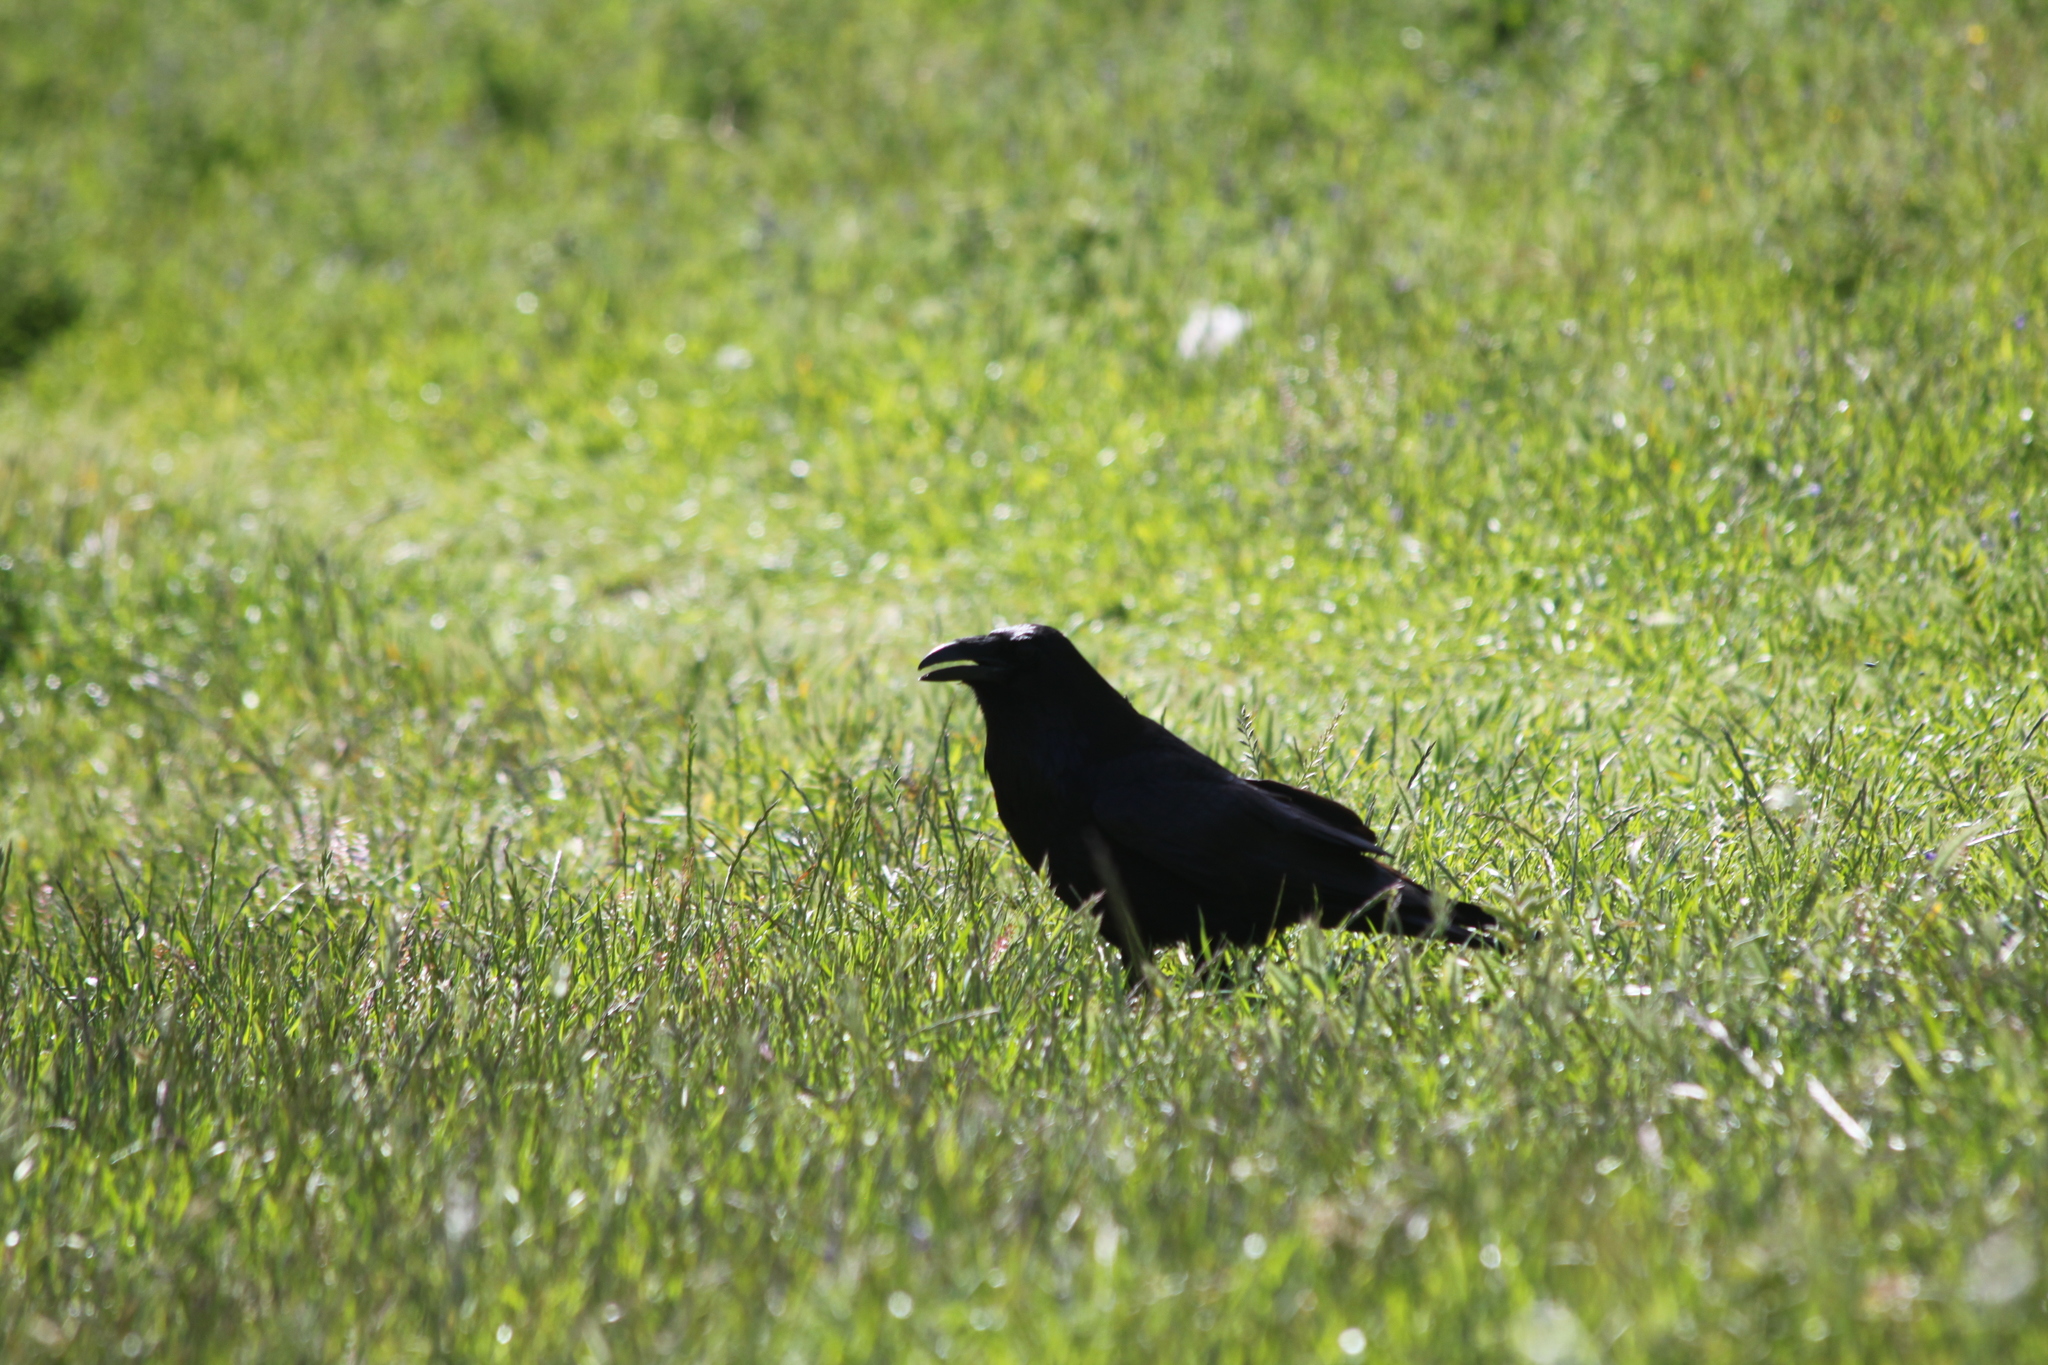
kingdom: Animalia
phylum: Chordata
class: Aves
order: Passeriformes
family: Corvidae
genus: Corvus
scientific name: Corvus corax
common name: Common raven
